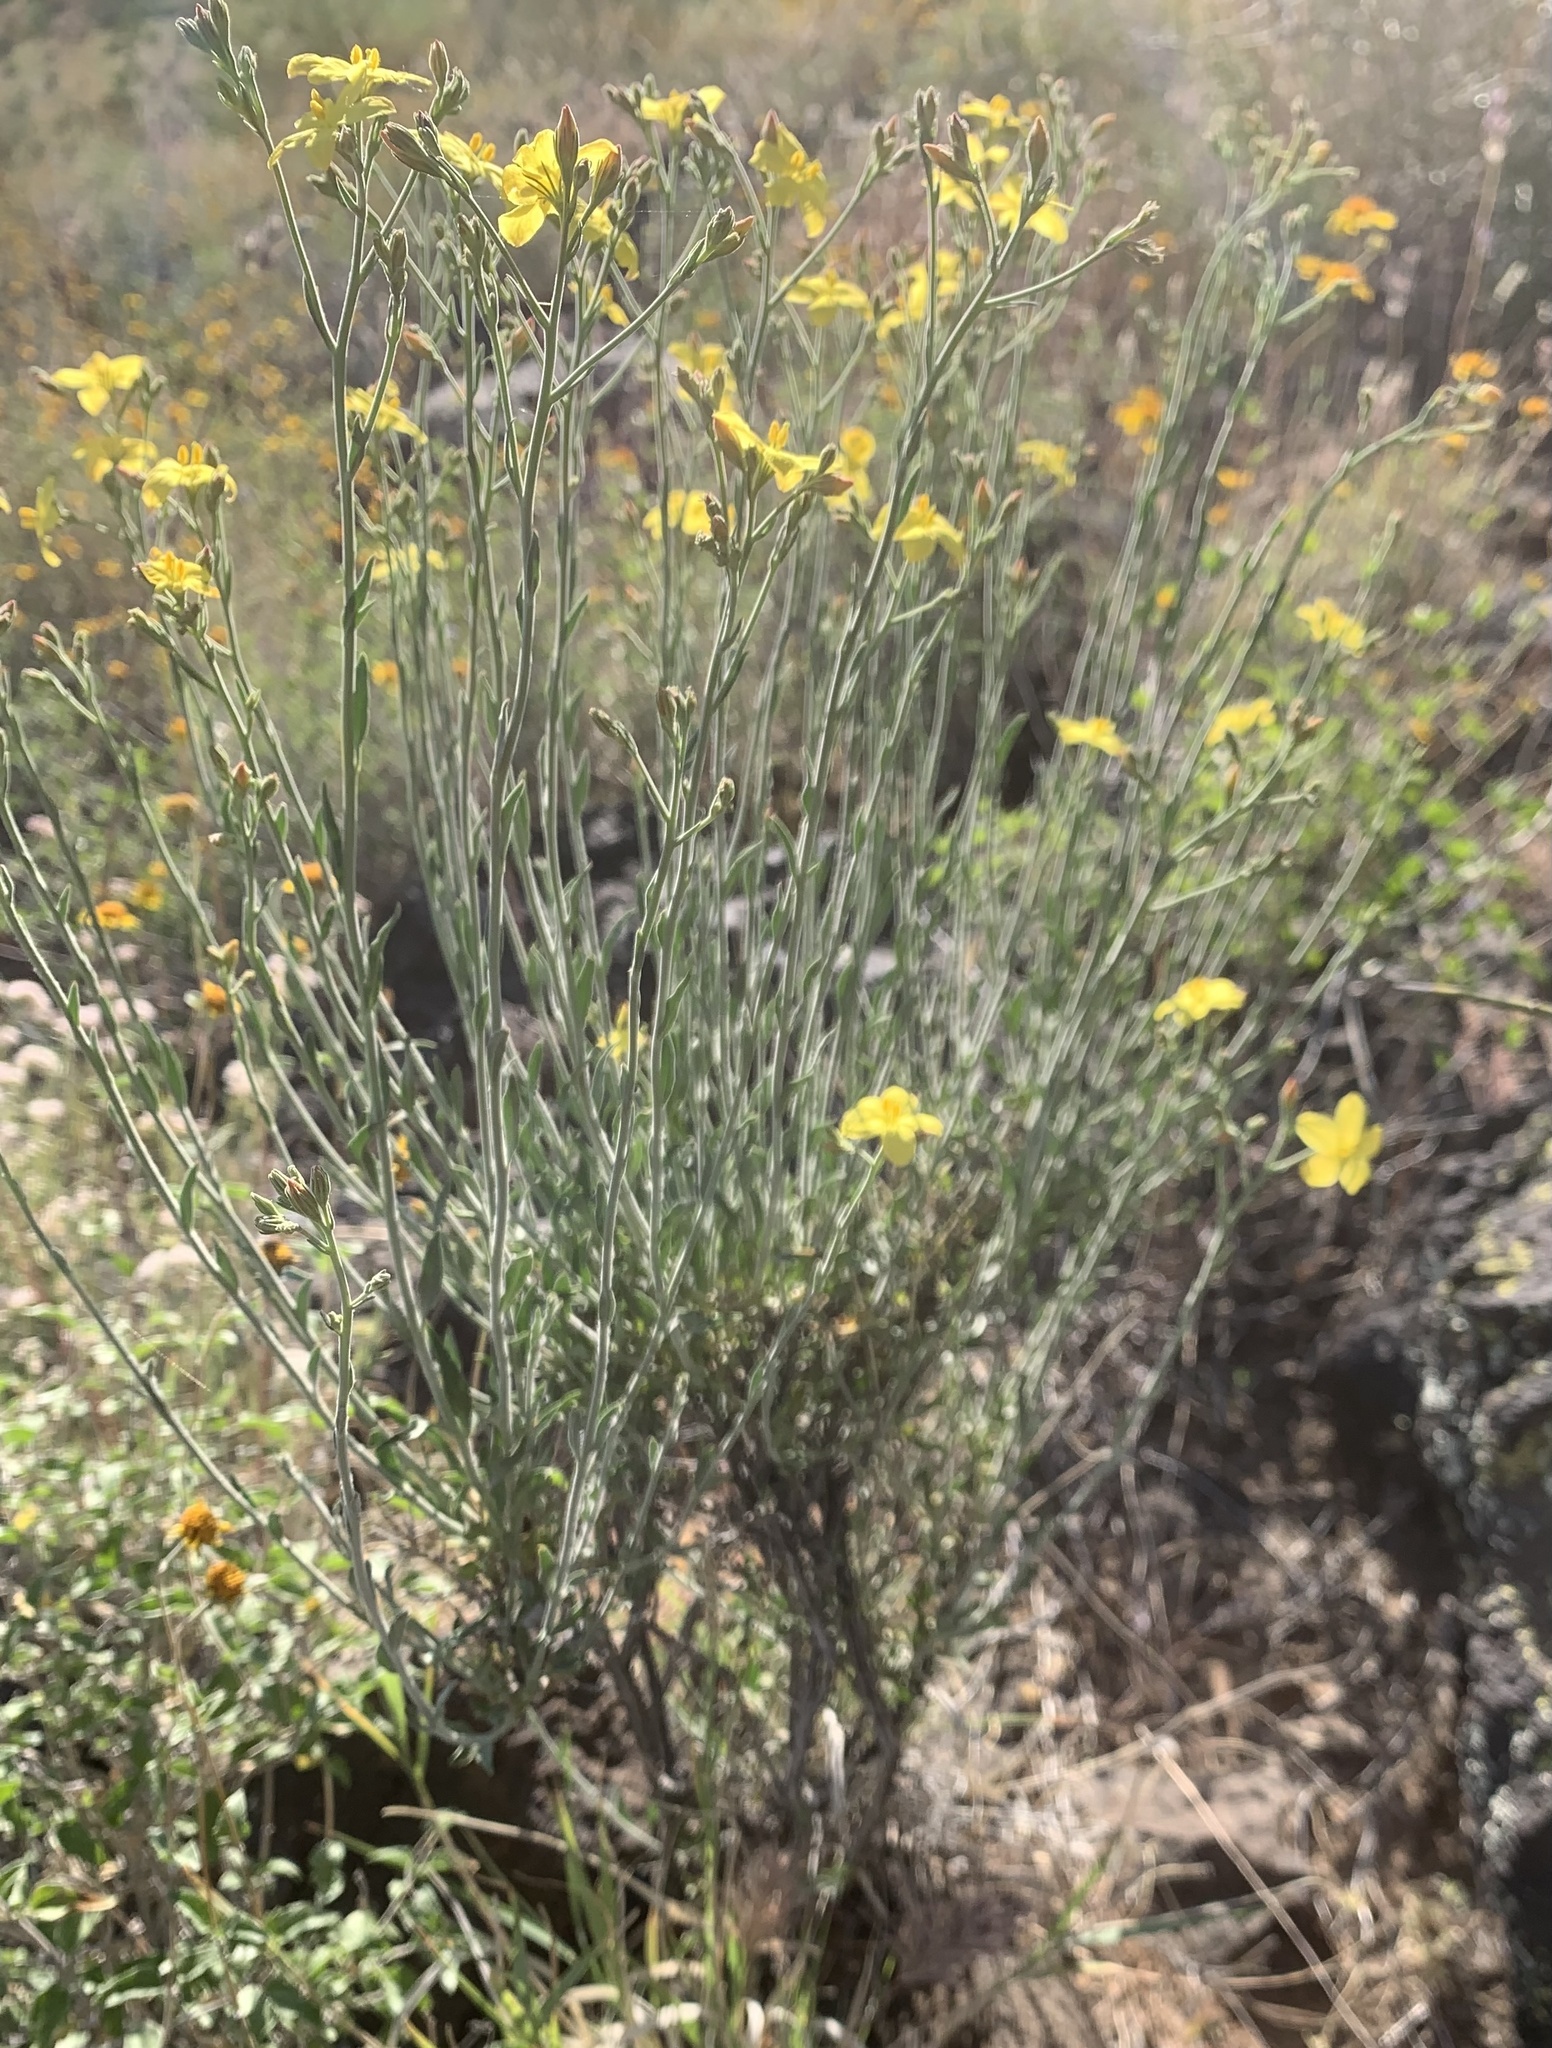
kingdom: Plantae
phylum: Tracheophyta
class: Magnoliopsida
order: Lamiales
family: Oleaceae
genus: Menodora
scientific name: Menodora scabra
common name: Rough menodora
